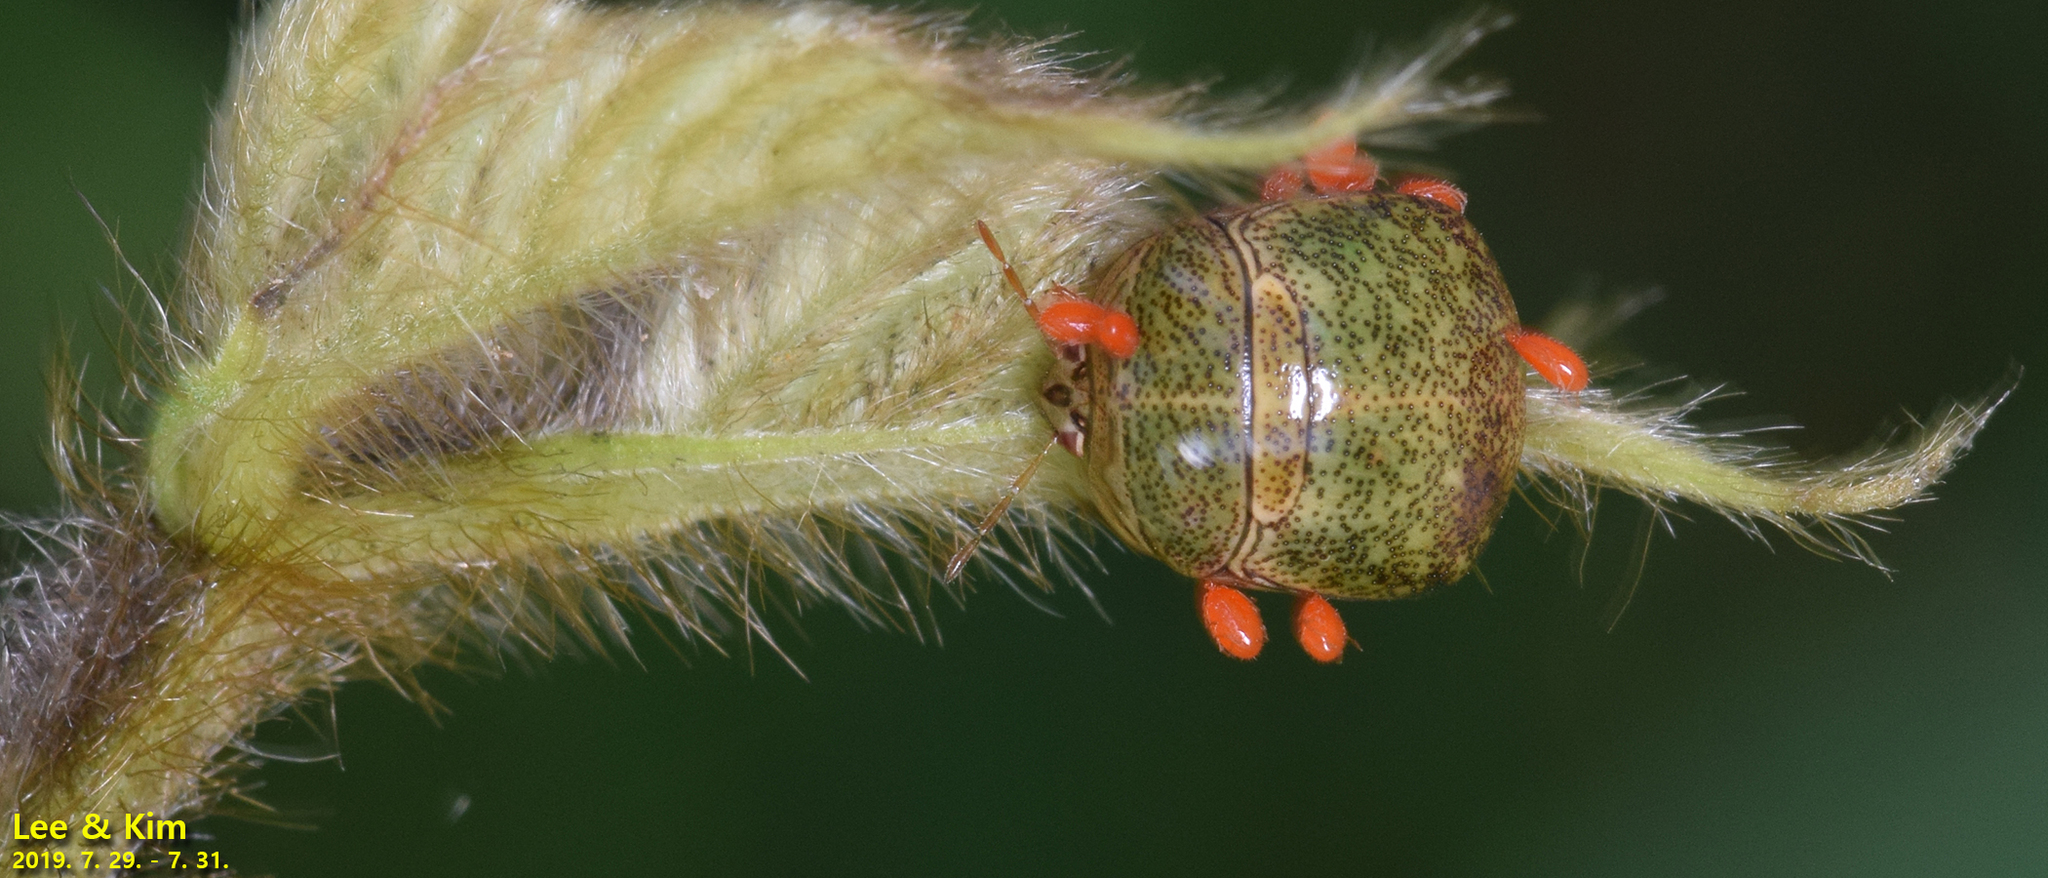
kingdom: Animalia
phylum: Arthropoda
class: Insecta
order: Hemiptera
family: Plataspidae
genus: Megacopta
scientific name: Megacopta cribraria
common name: Bean plataspid
